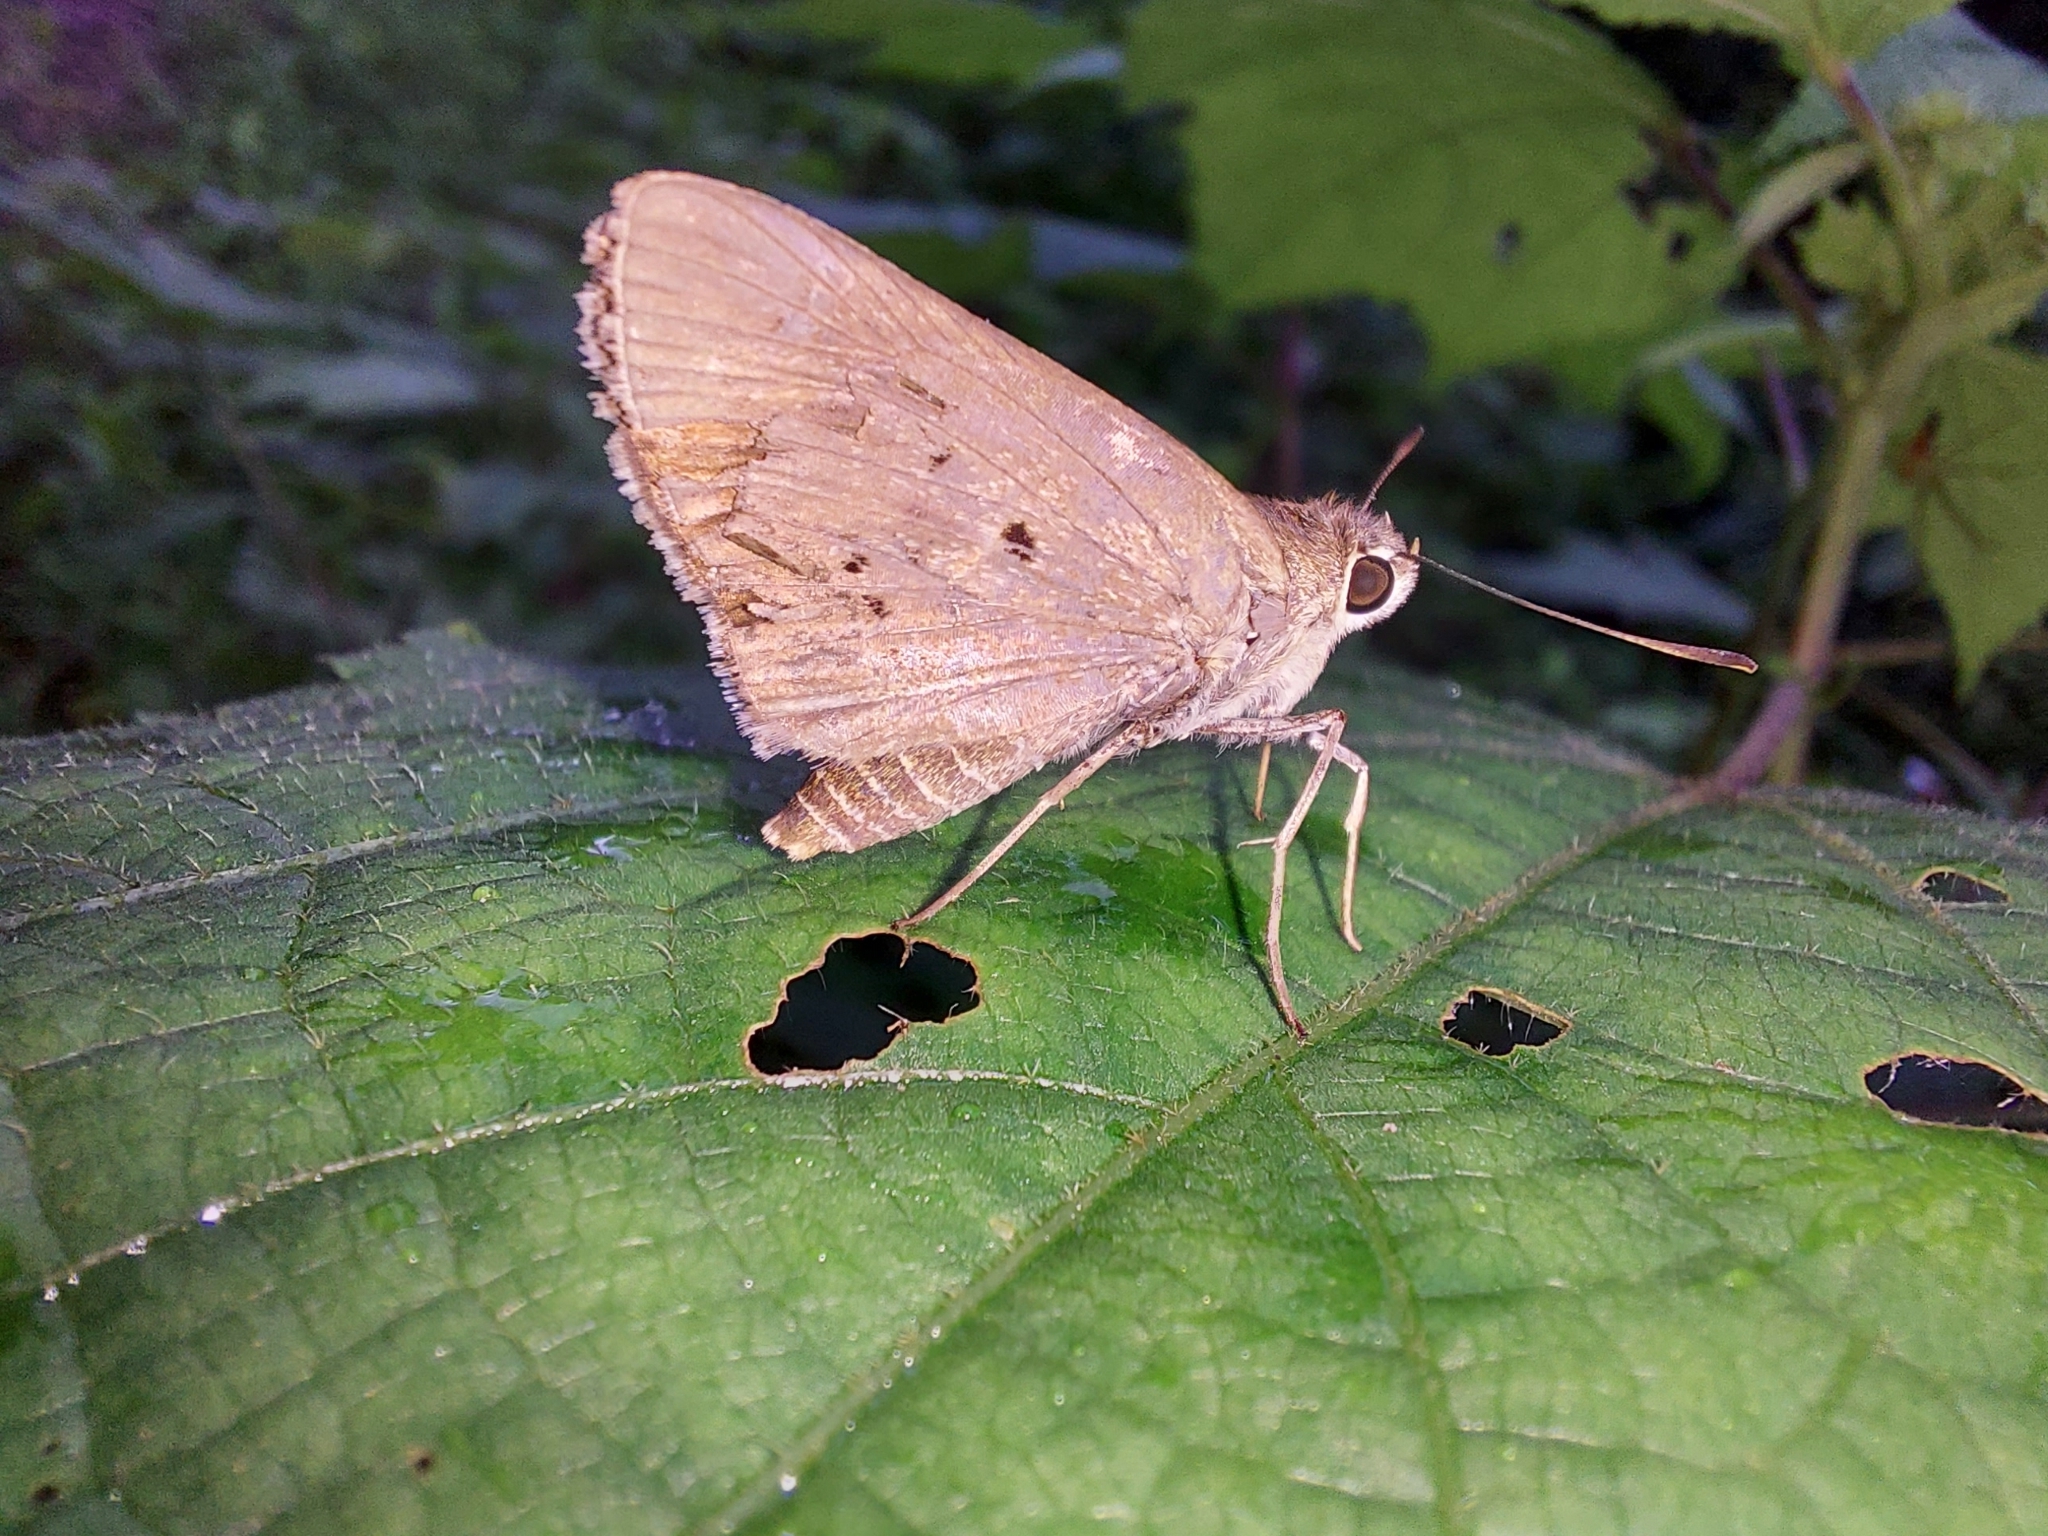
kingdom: Animalia
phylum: Arthropoda
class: Insecta
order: Lepidoptera
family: Hesperiidae
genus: Suastus
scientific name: Suastus gremius
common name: Indian palm bob
